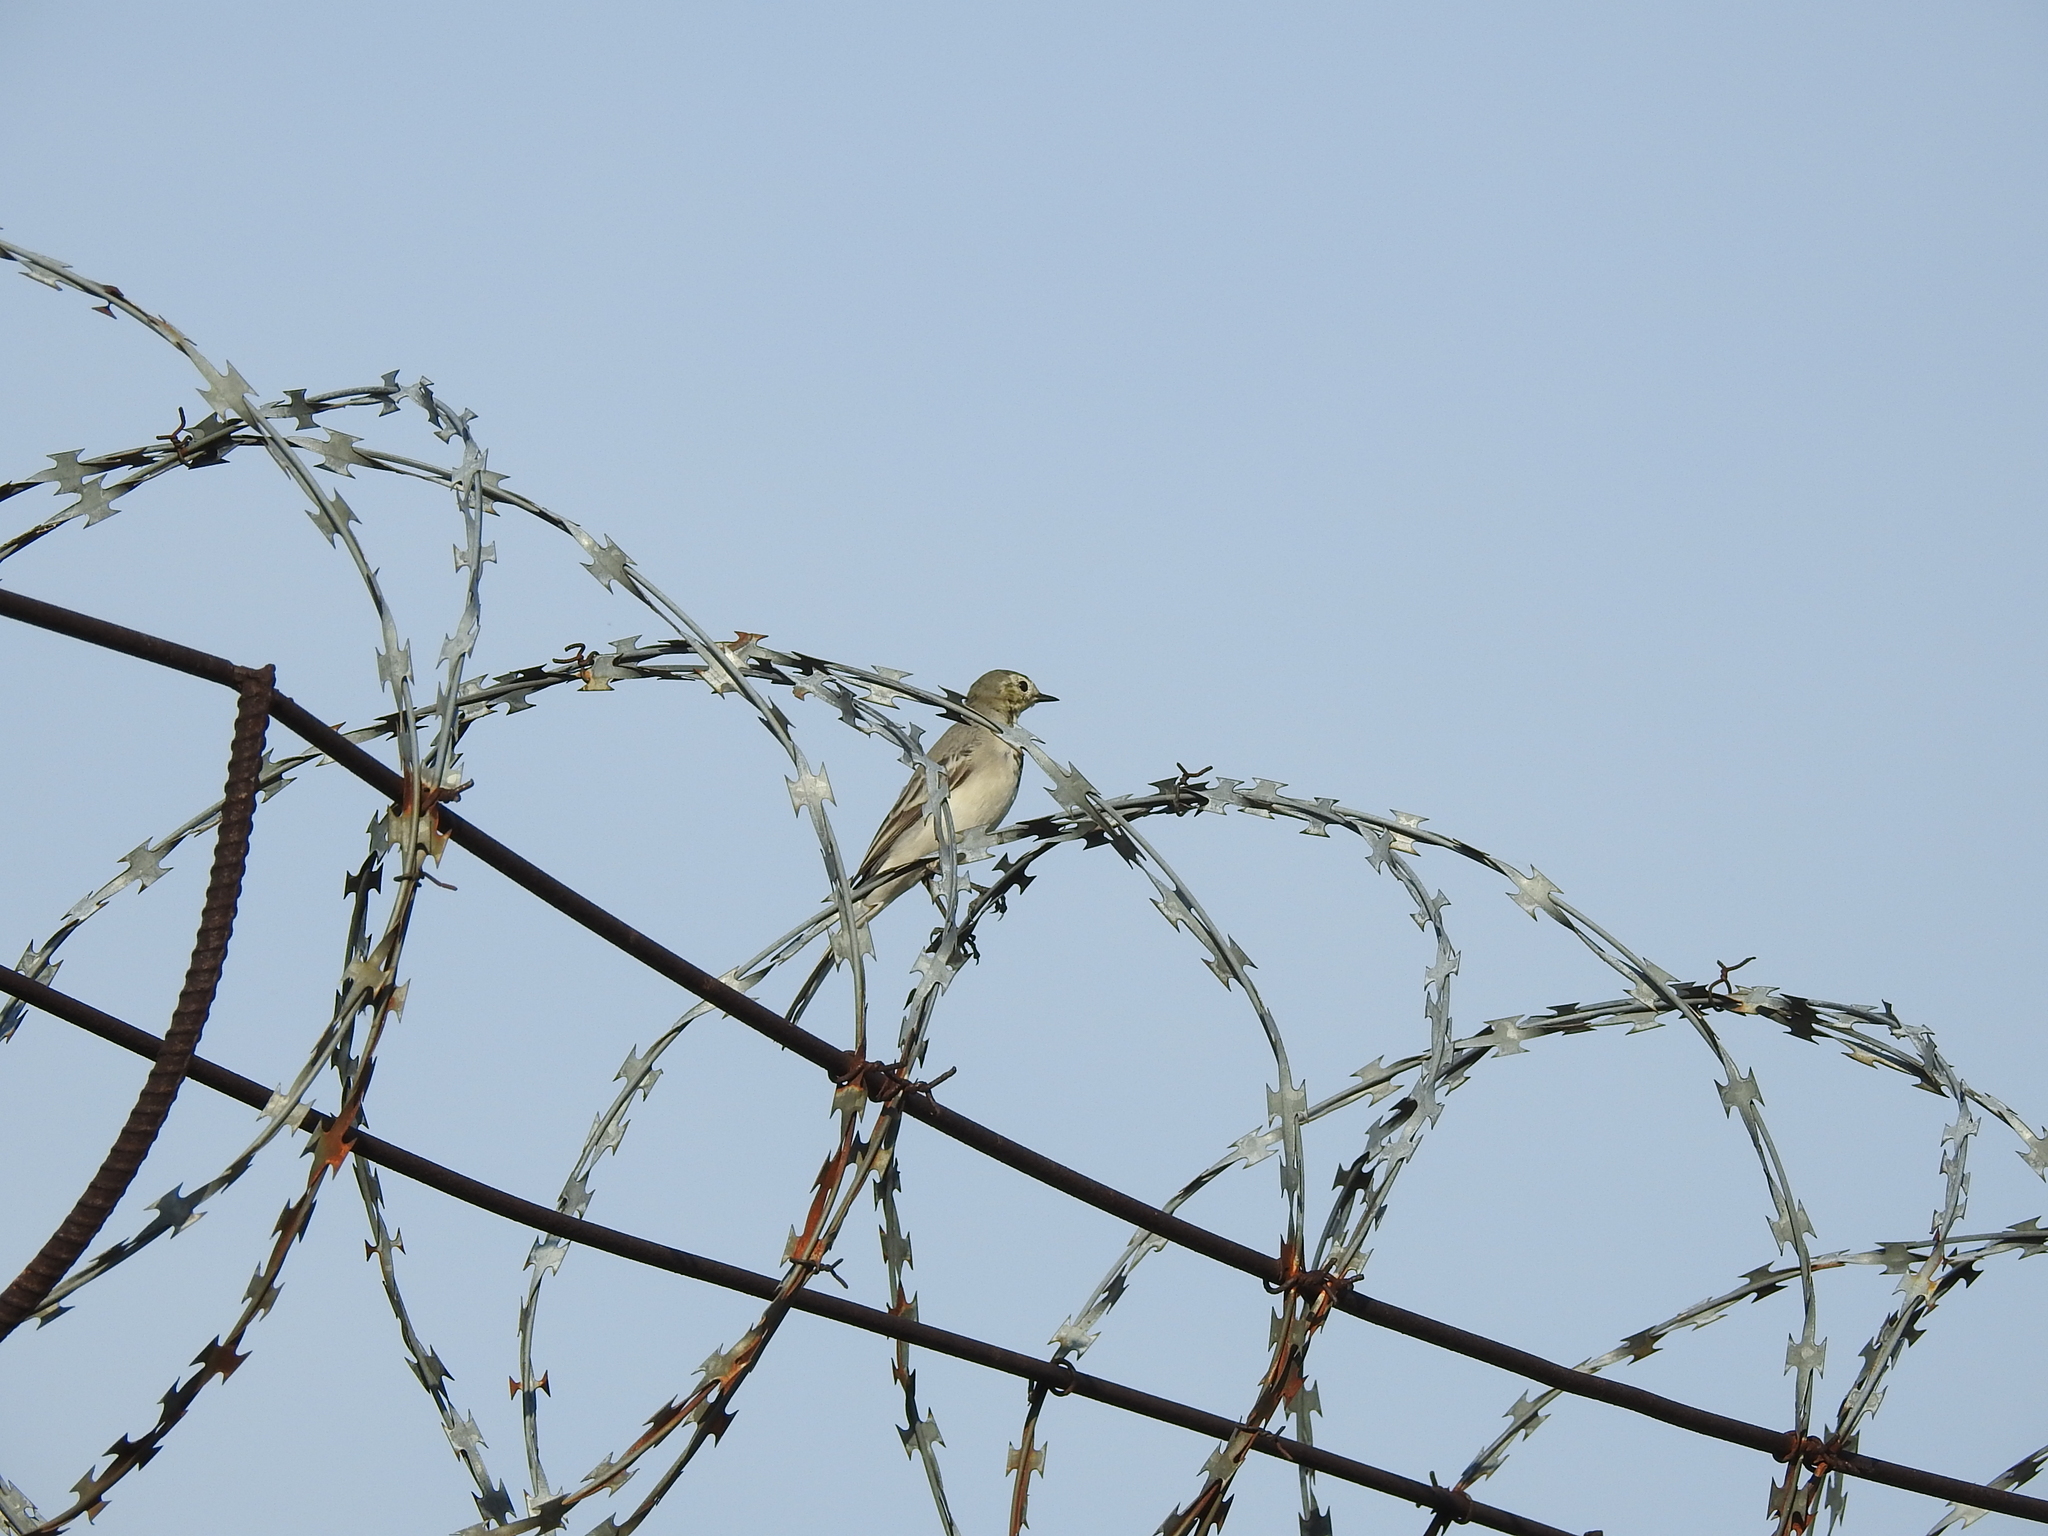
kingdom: Animalia
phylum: Chordata
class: Aves
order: Passeriformes
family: Motacillidae
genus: Motacilla
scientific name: Motacilla alba
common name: White wagtail
